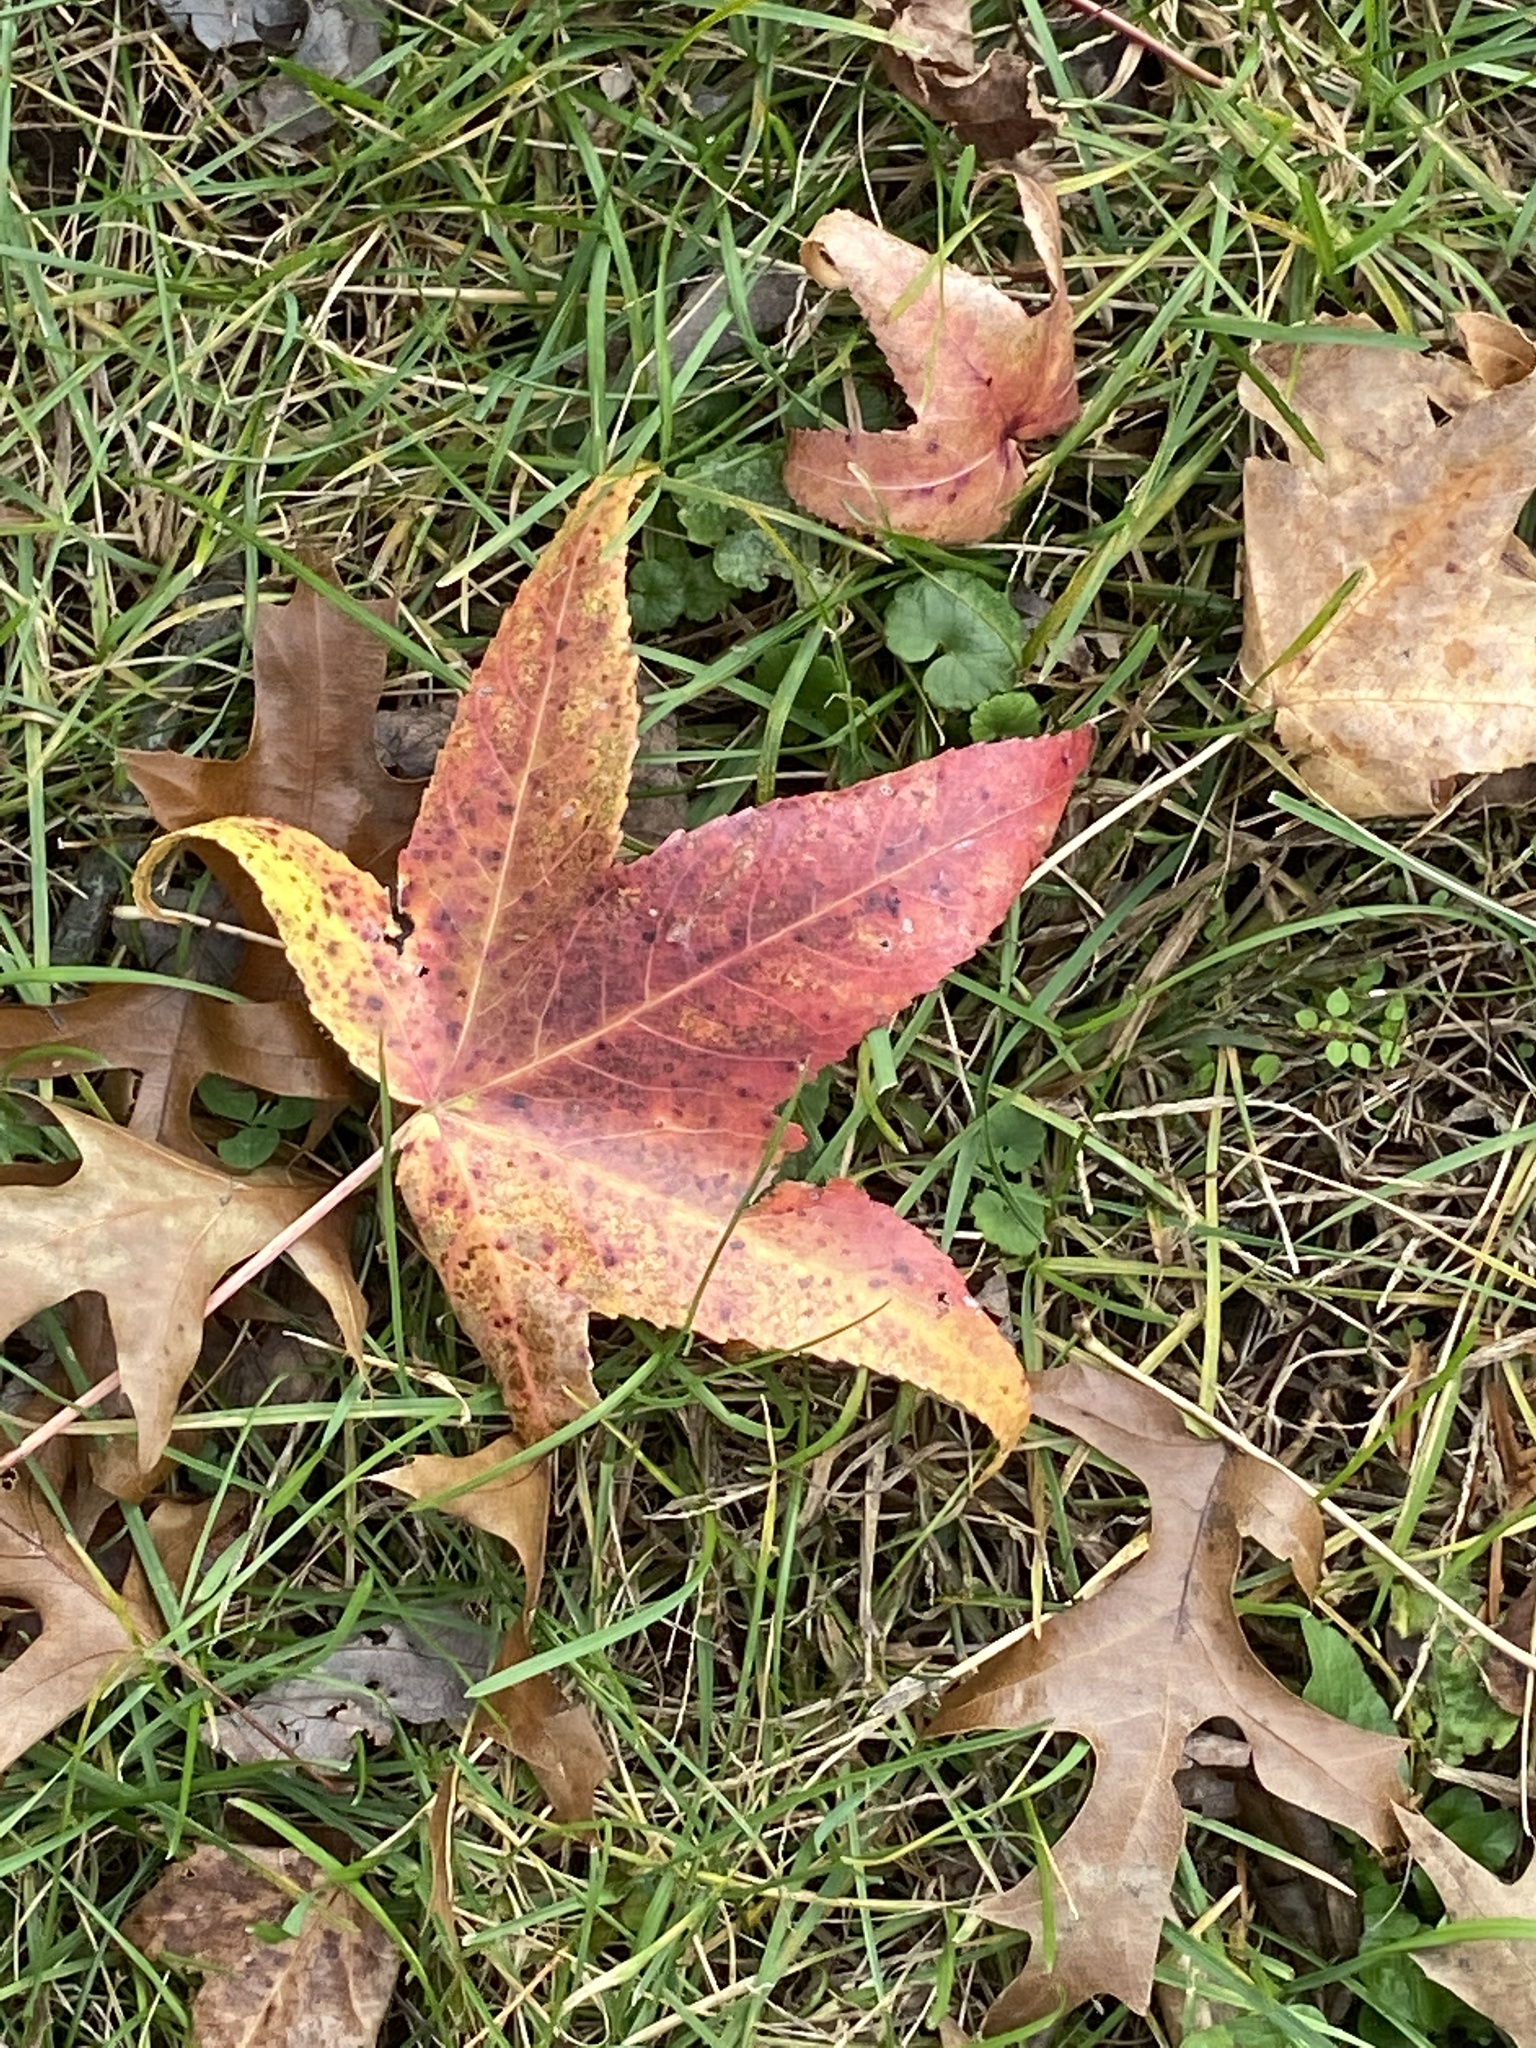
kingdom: Plantae
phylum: Tracheophyta
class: Magnoliopsida
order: Saxifragales
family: Altingiaceae
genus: Liquidambar
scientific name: Liquidambar styraciflua
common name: Sweet gum
